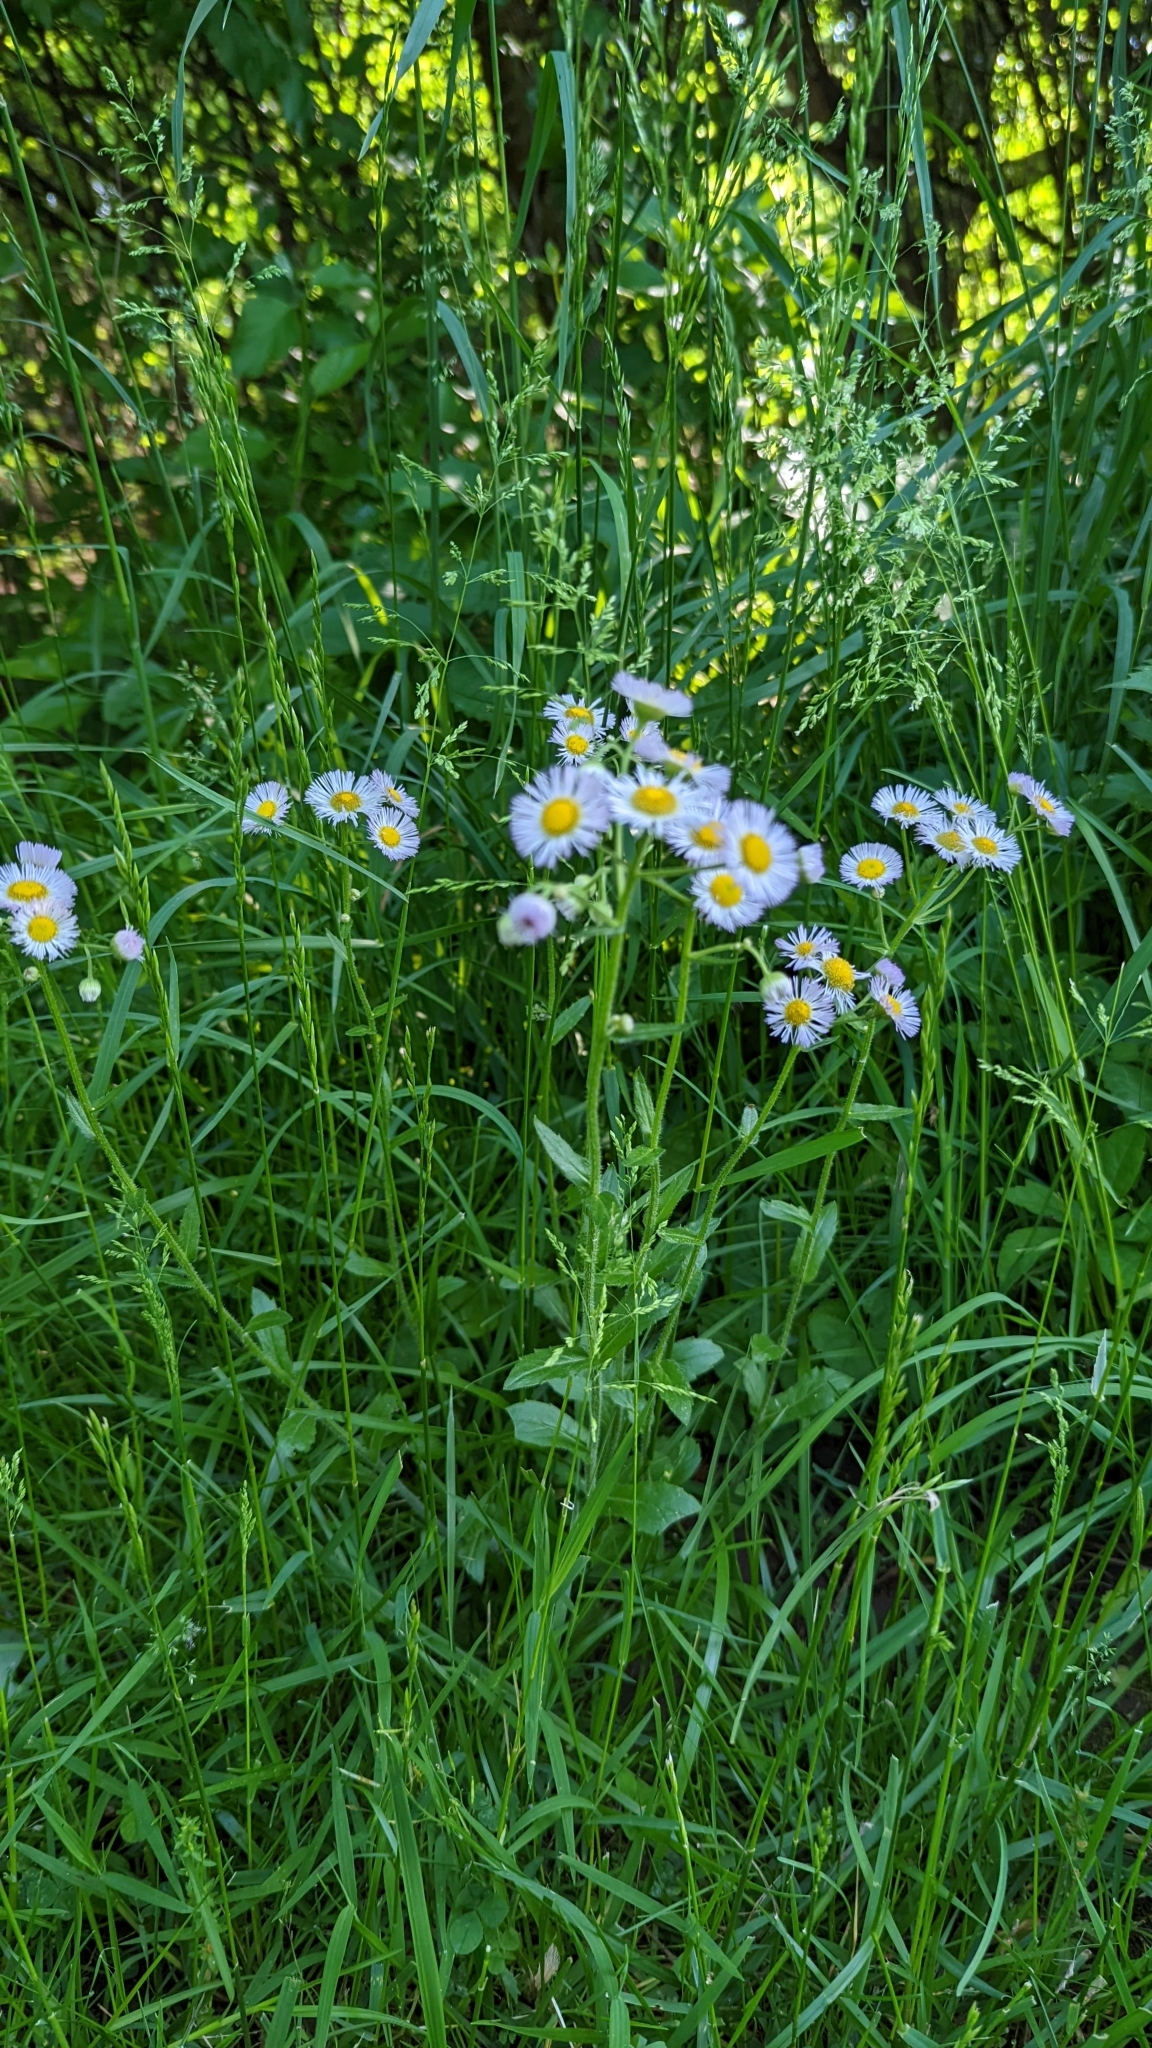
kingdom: Plantae
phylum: Tracheophyta
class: Magnoliopsida
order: Asterales
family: Asteraceae
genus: Erigeron
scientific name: Erigeron philadelphicus
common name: Robin's-plantain
